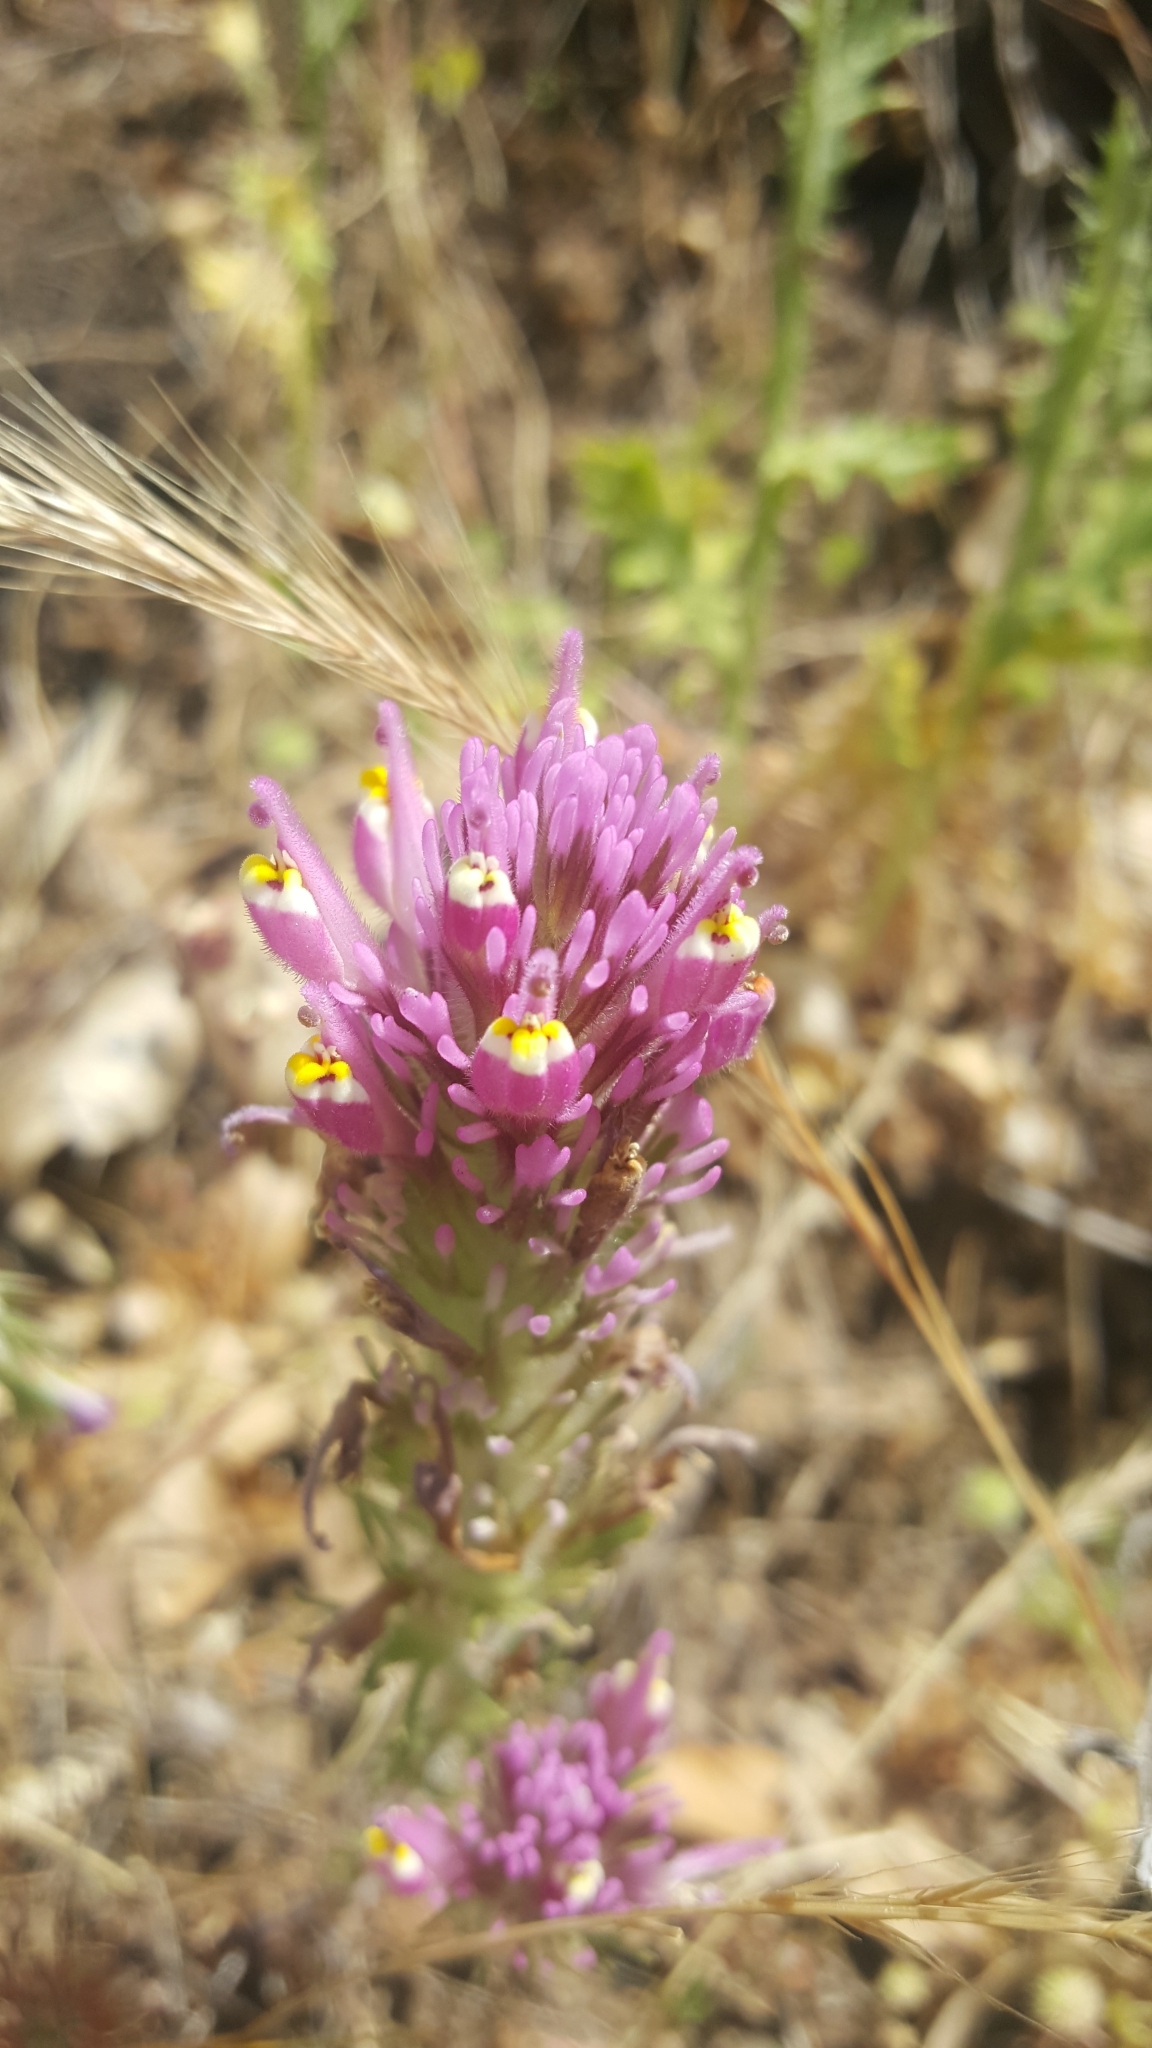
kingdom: Plantae
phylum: Tracheophyta
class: Magnoliopsida
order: Lamiales
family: Orobanchaceae
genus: Castilleja
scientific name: Castilleja exserta
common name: Purple owl-clover
